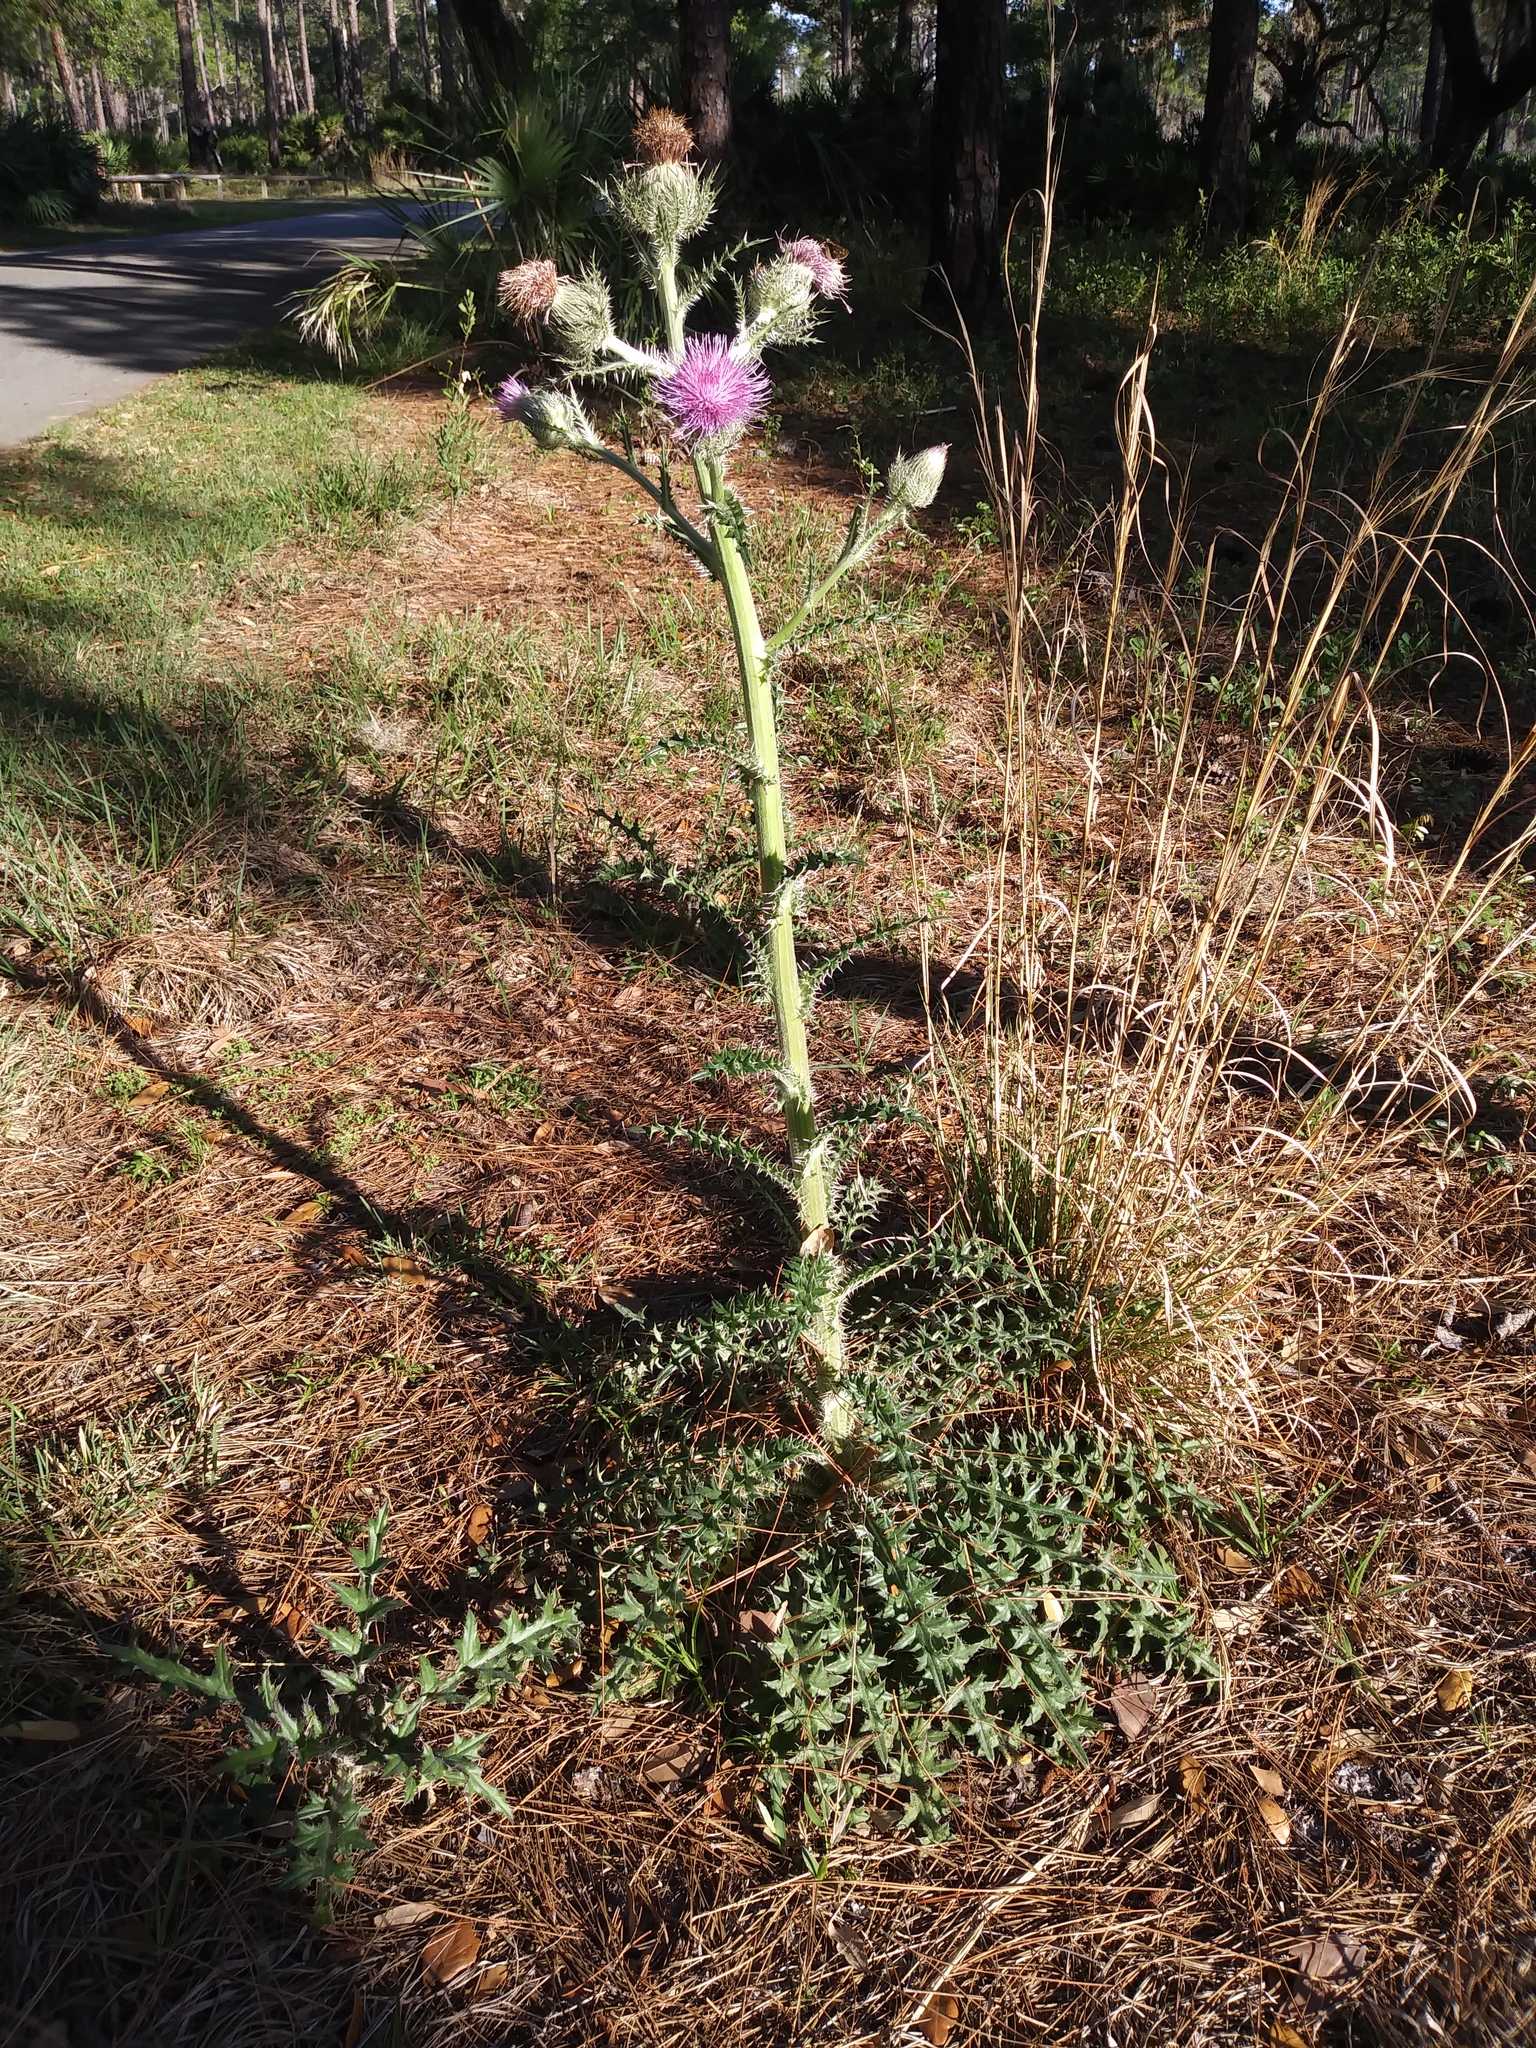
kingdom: Plantae
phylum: Tracheophyta
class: Magnoliopsida
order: Asterales
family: Asteraceae
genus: Cirsium
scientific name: Cirsium horridulum
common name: Bristly thistle
